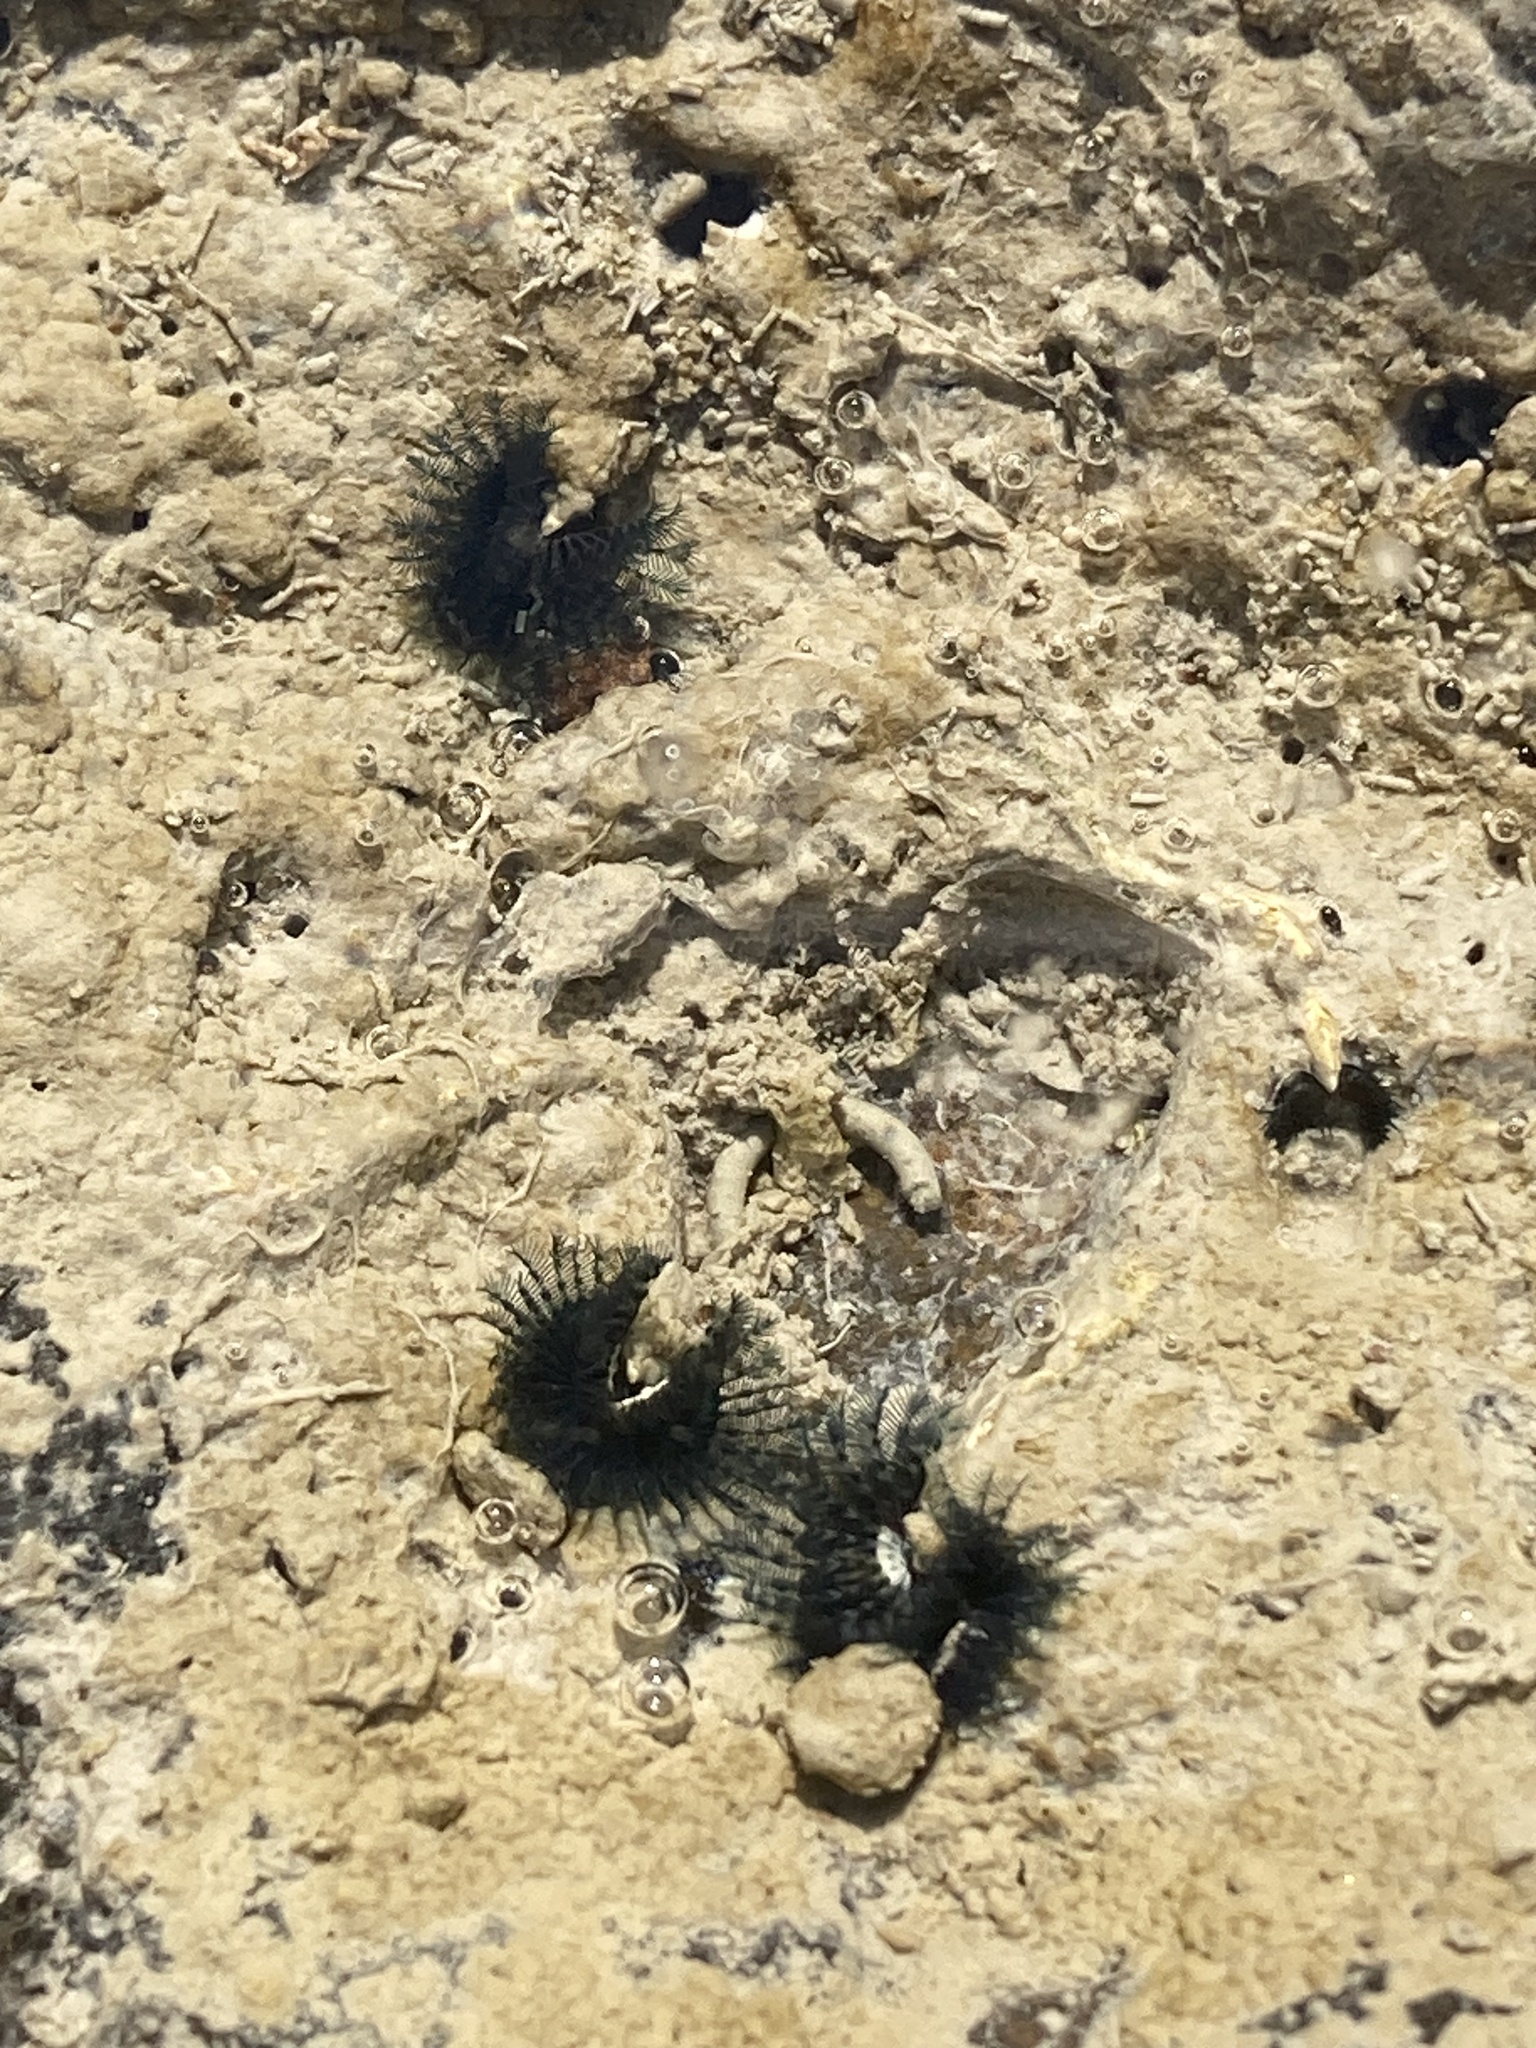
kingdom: Animalia
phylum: Annelida
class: Polychaeta
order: Sabellida
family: Serpulidae
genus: Spirobranchus
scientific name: Spirobranchus cariniferus
